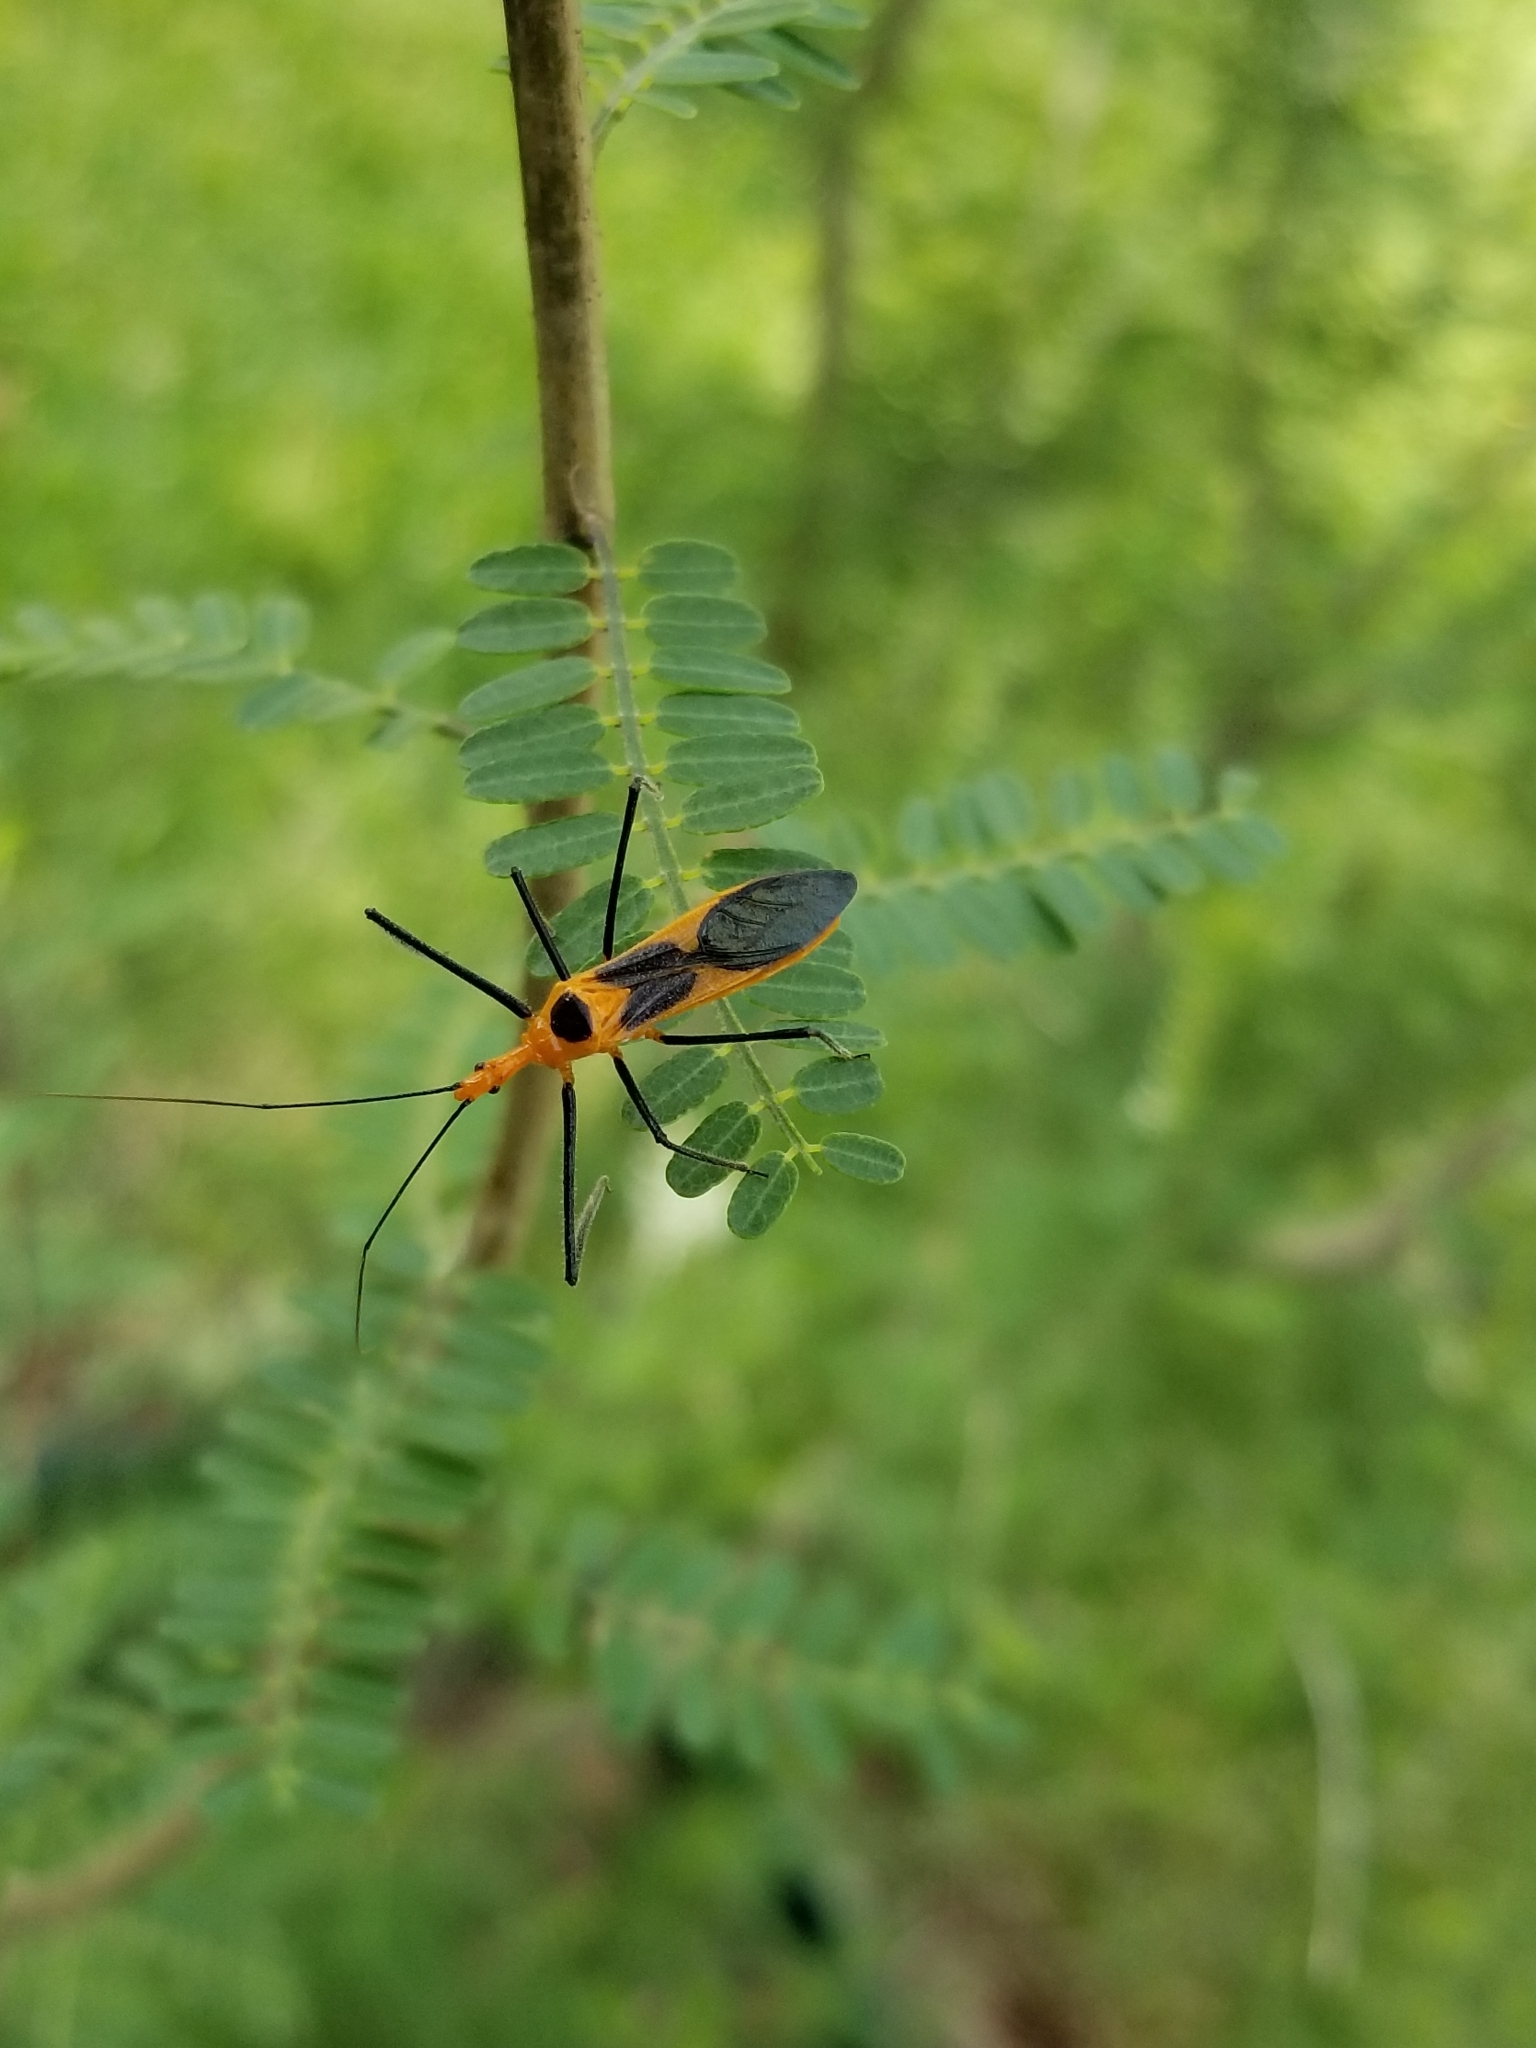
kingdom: Animalia
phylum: Arthropoda
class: Insecta
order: Hemiptera
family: Reduviidae
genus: Zelus
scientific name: Zelus longipes
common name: Milkweed assassin bug
